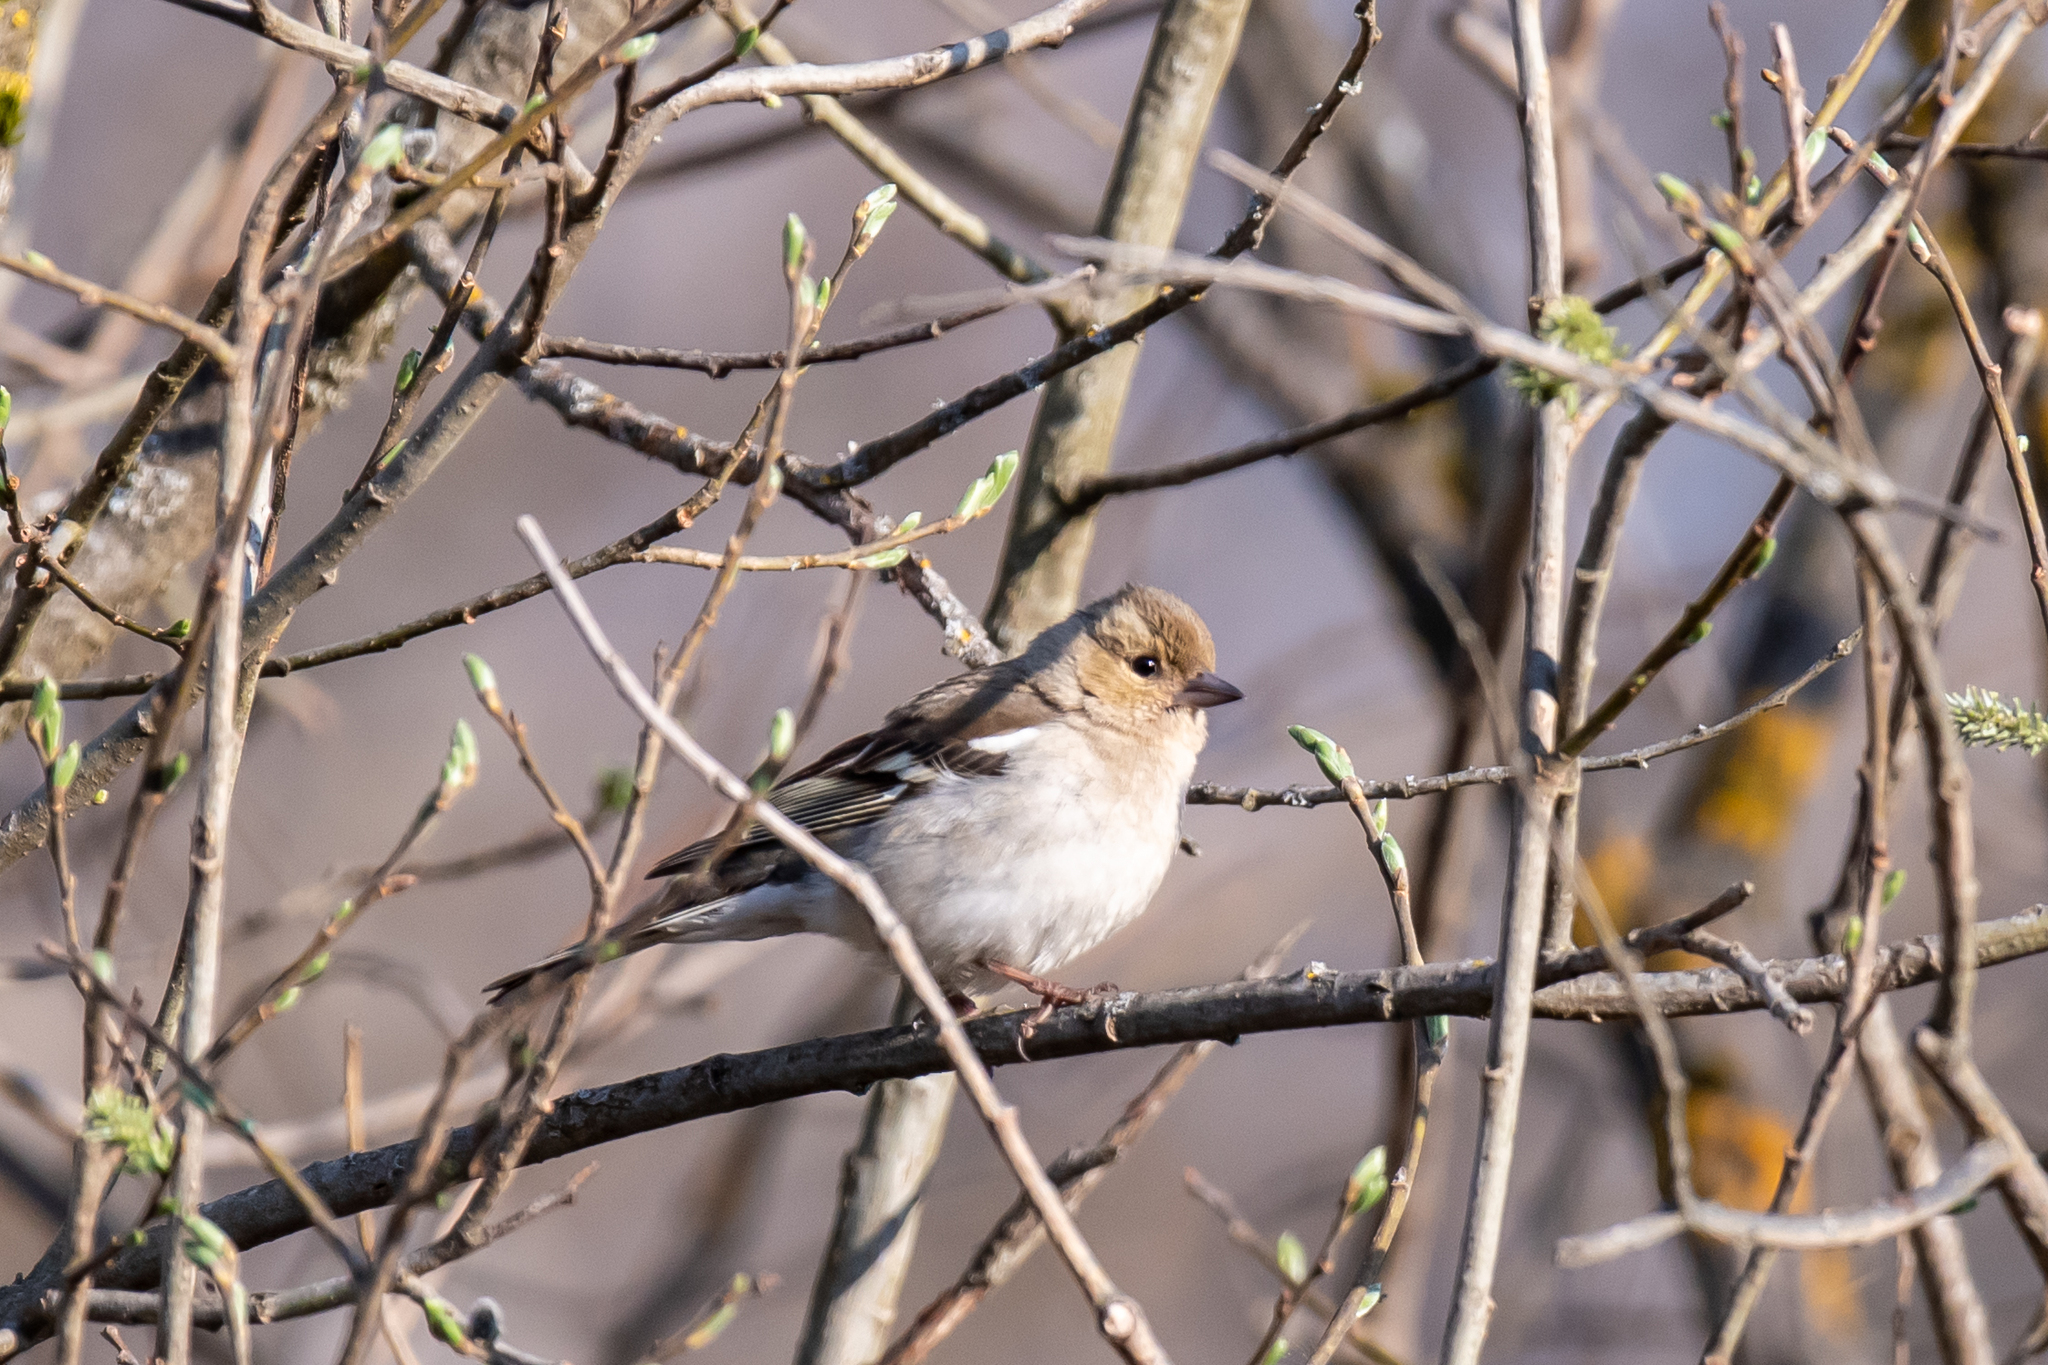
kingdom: Animalia
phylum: Chordata
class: Aves
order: Passeriformes
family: Fringillidae
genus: Fringilla
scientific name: Fringilla coelebs
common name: Common chaffinch
